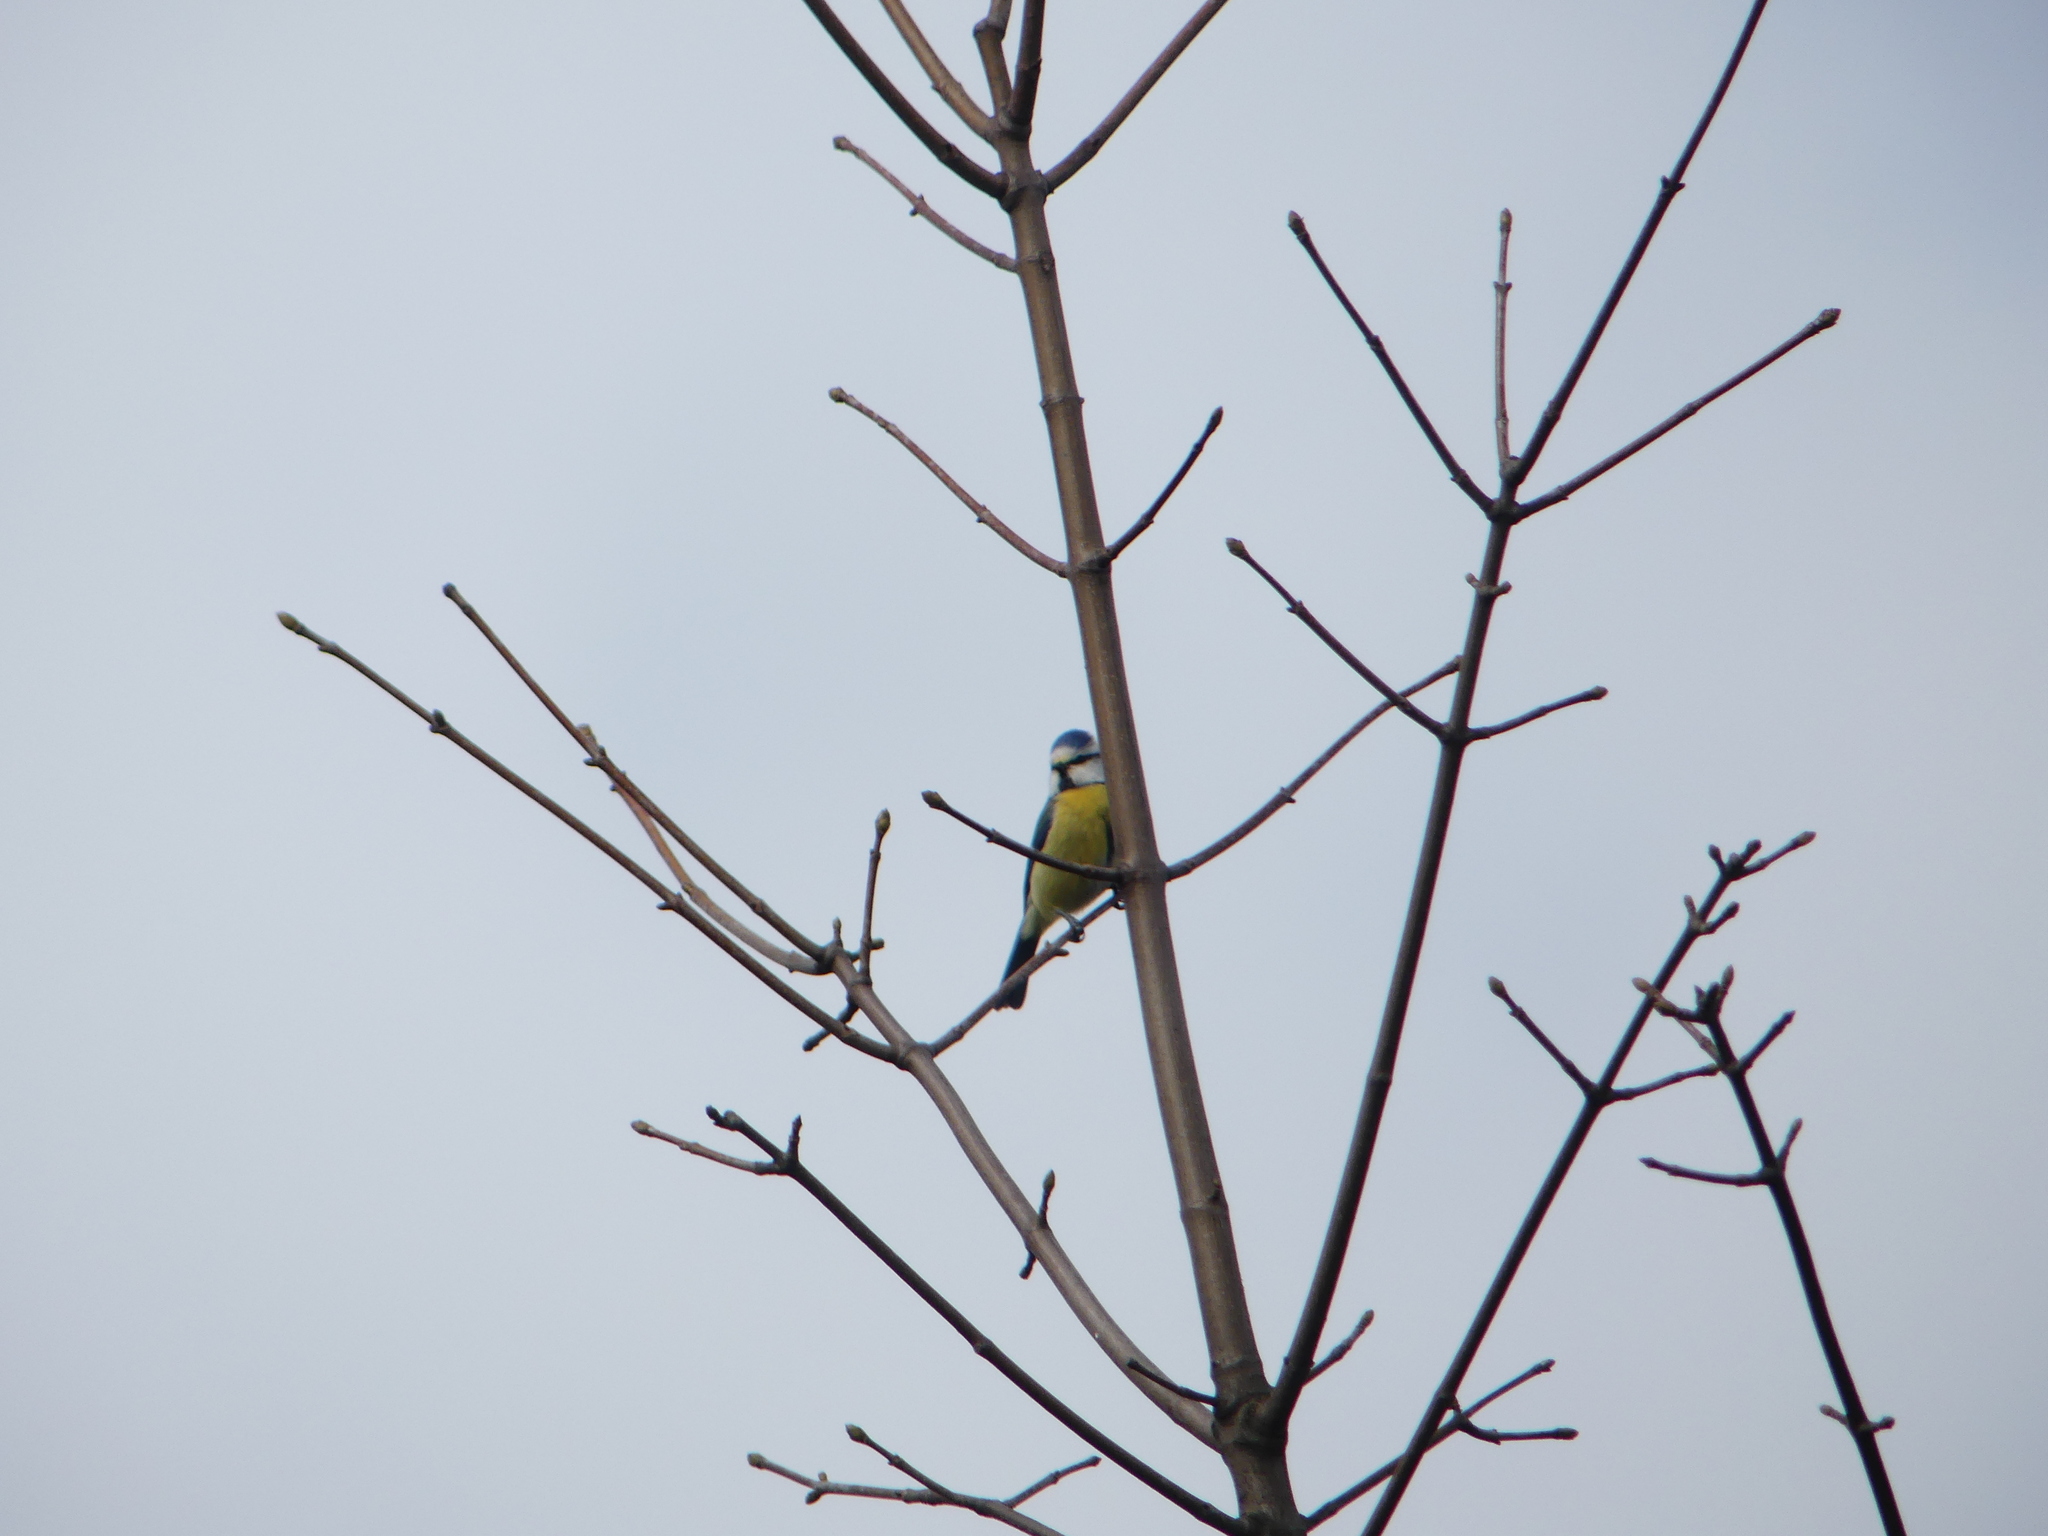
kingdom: Animalia
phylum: Chordata
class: Aves
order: Passeriformes
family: Paridae
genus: Cyanistes
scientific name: Cyanistes caeruleus
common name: Eurasian blue tit
